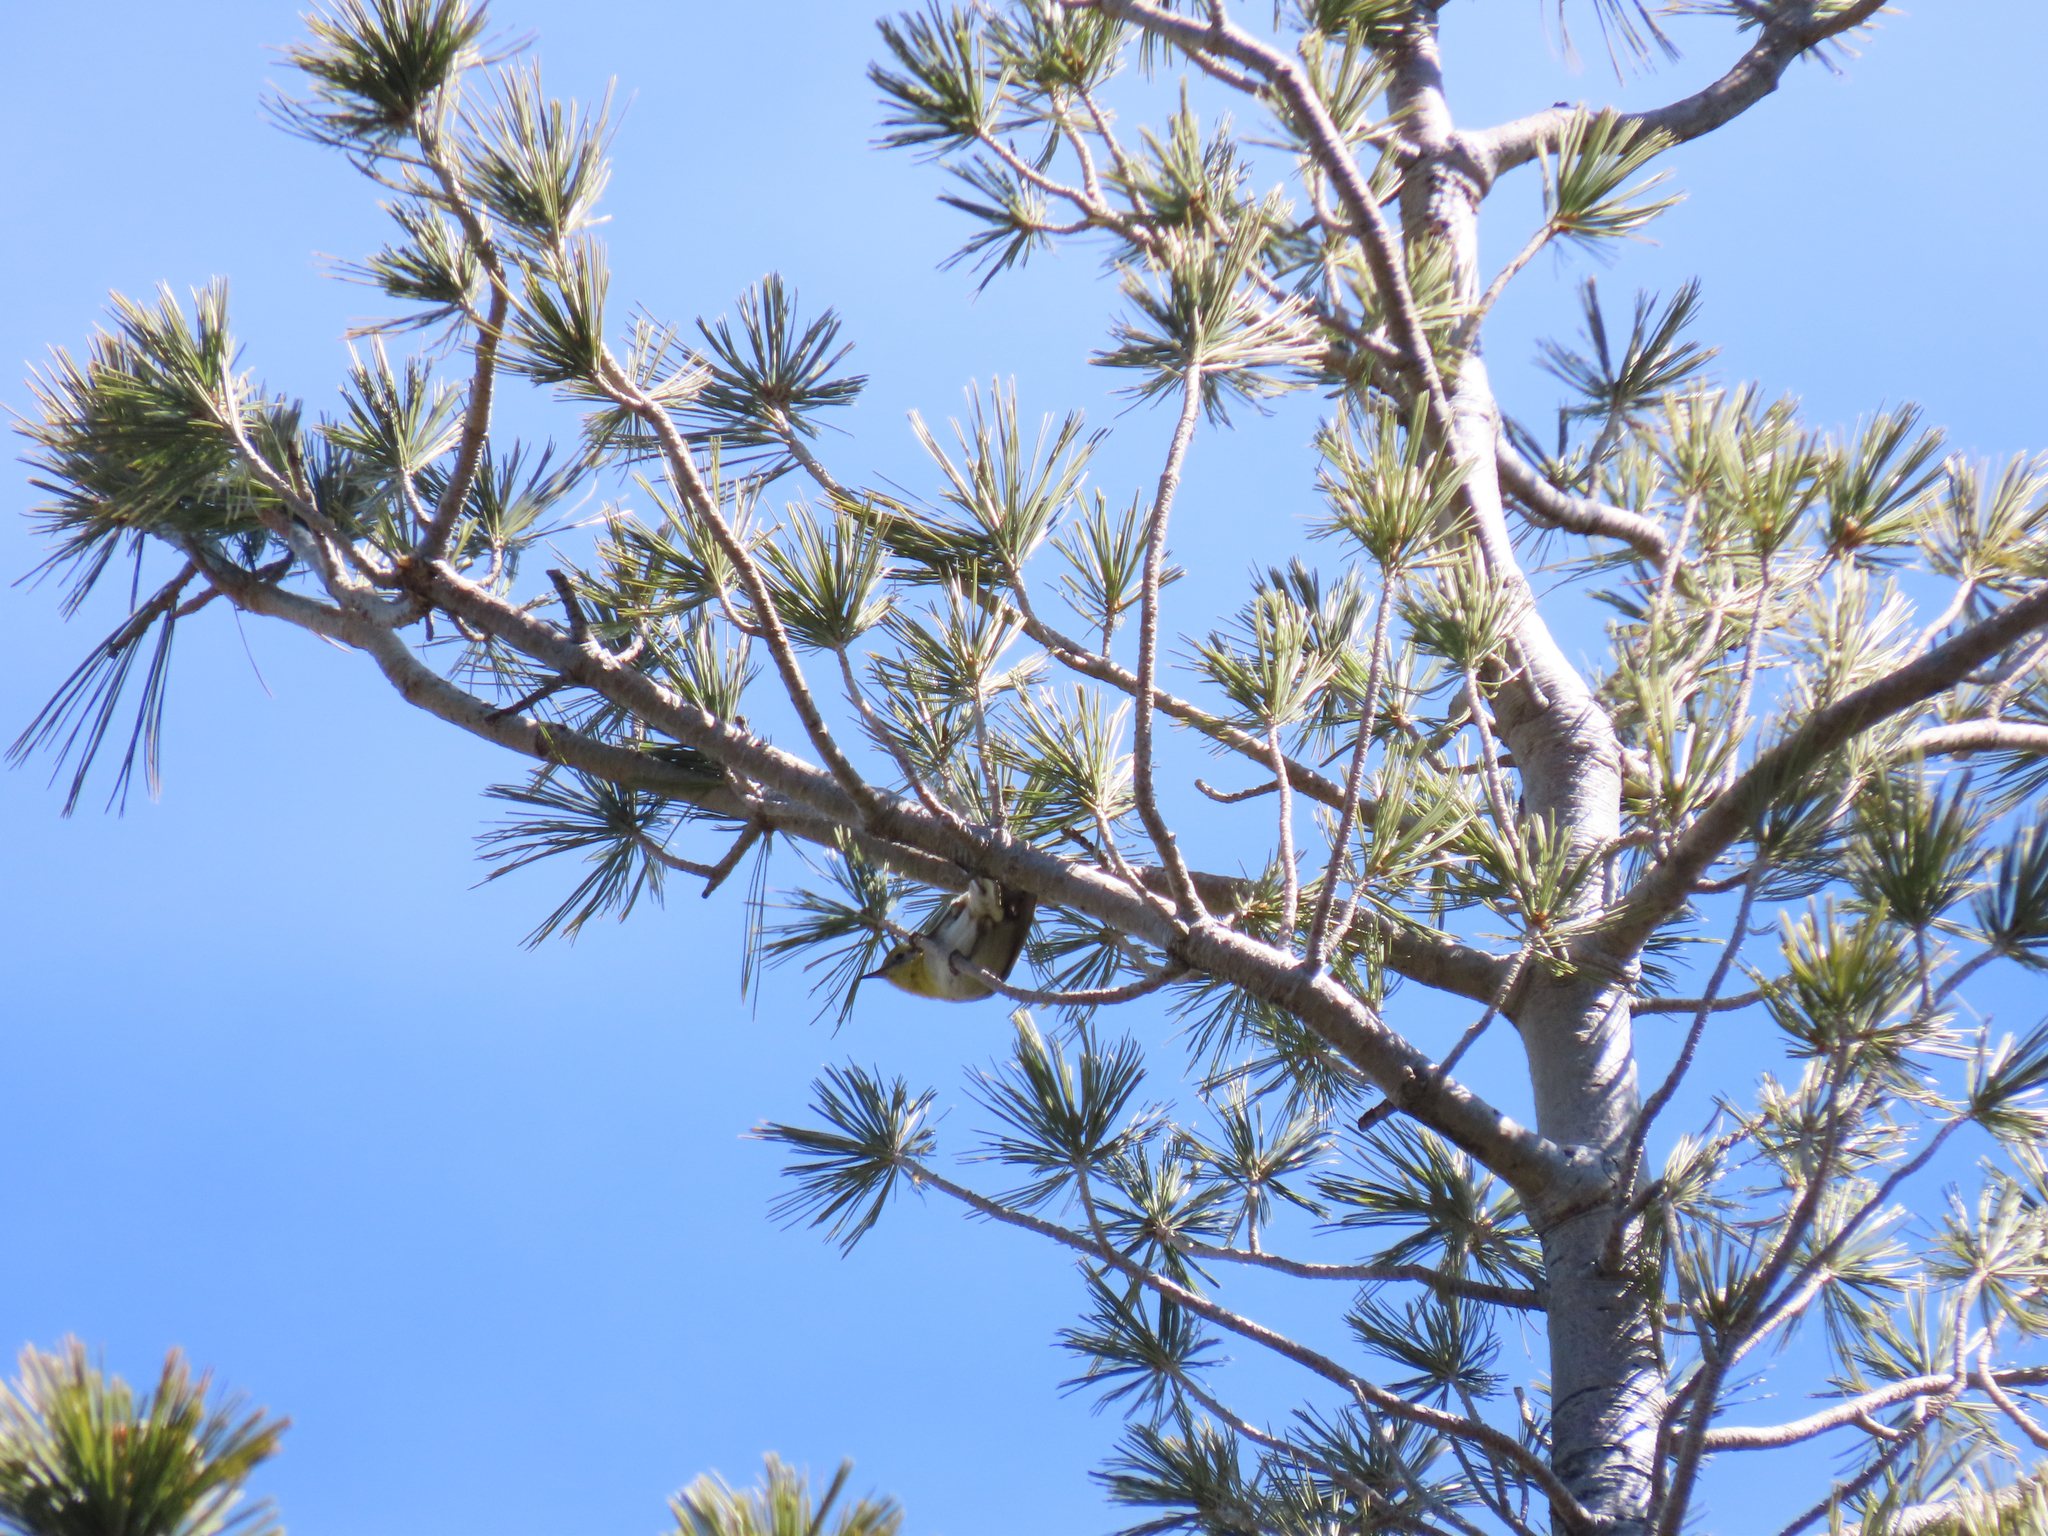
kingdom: Animalia
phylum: Chordata
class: Aves
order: Passeriformes
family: Peucedramidae
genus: Peucedramus
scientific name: Peucedramus taeniatus
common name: Olive warbler
